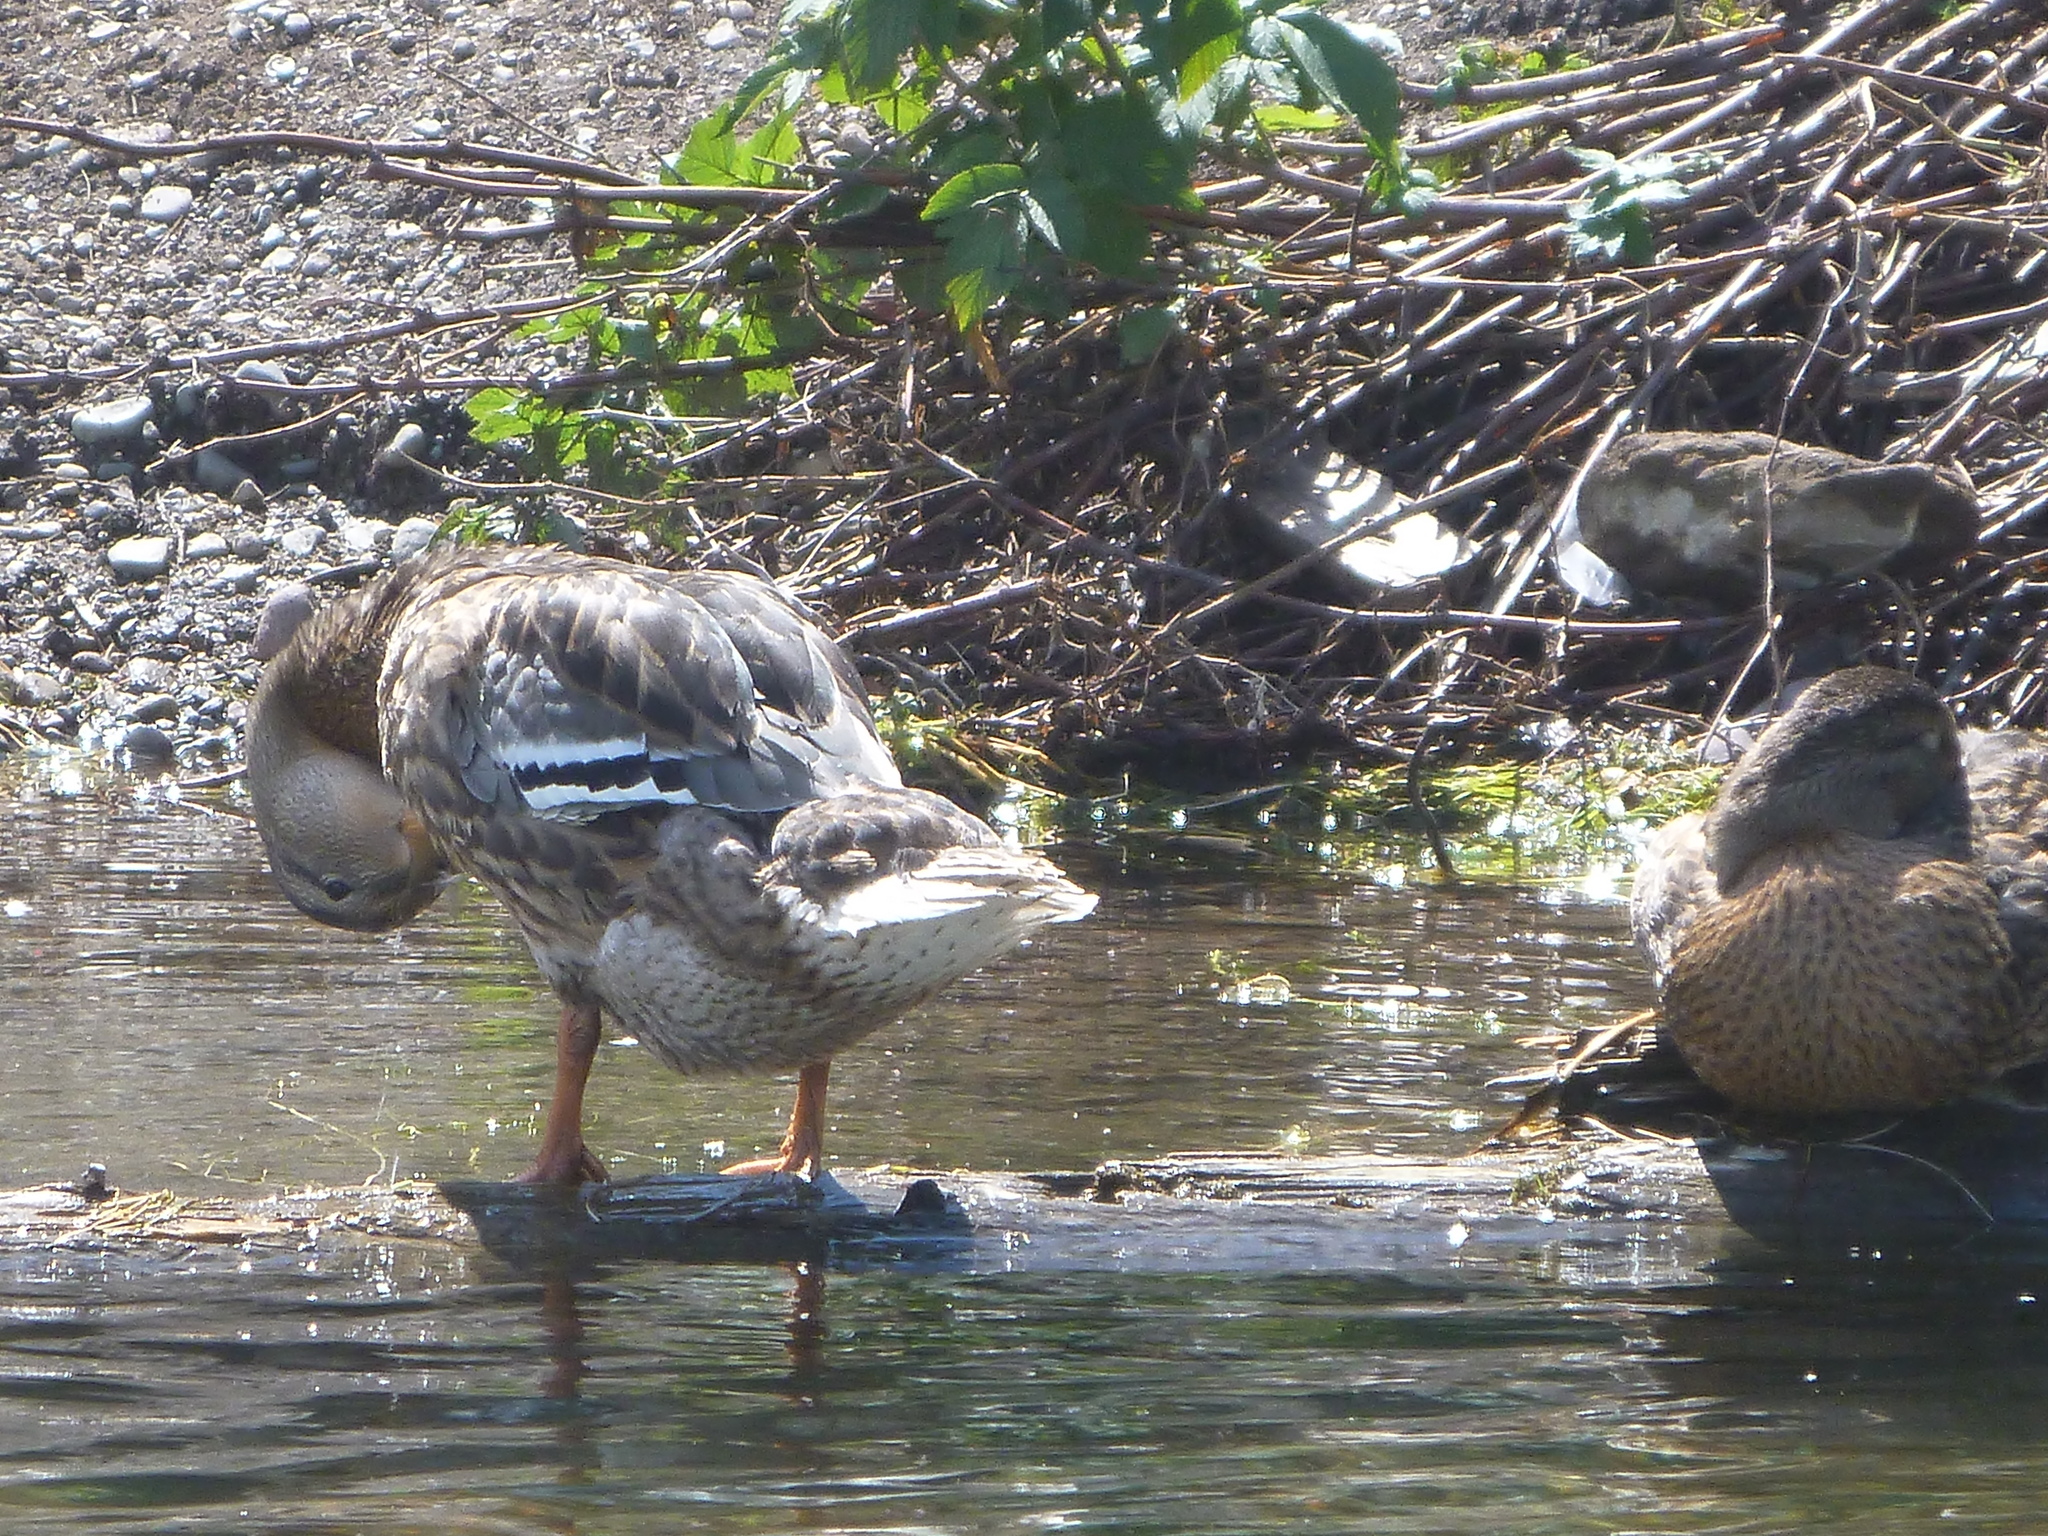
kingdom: Animalia
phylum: Chordata
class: Aves
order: Anseriformes
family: Anatidae
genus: Anas
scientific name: Anas platyrhynchos
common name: Mallard
